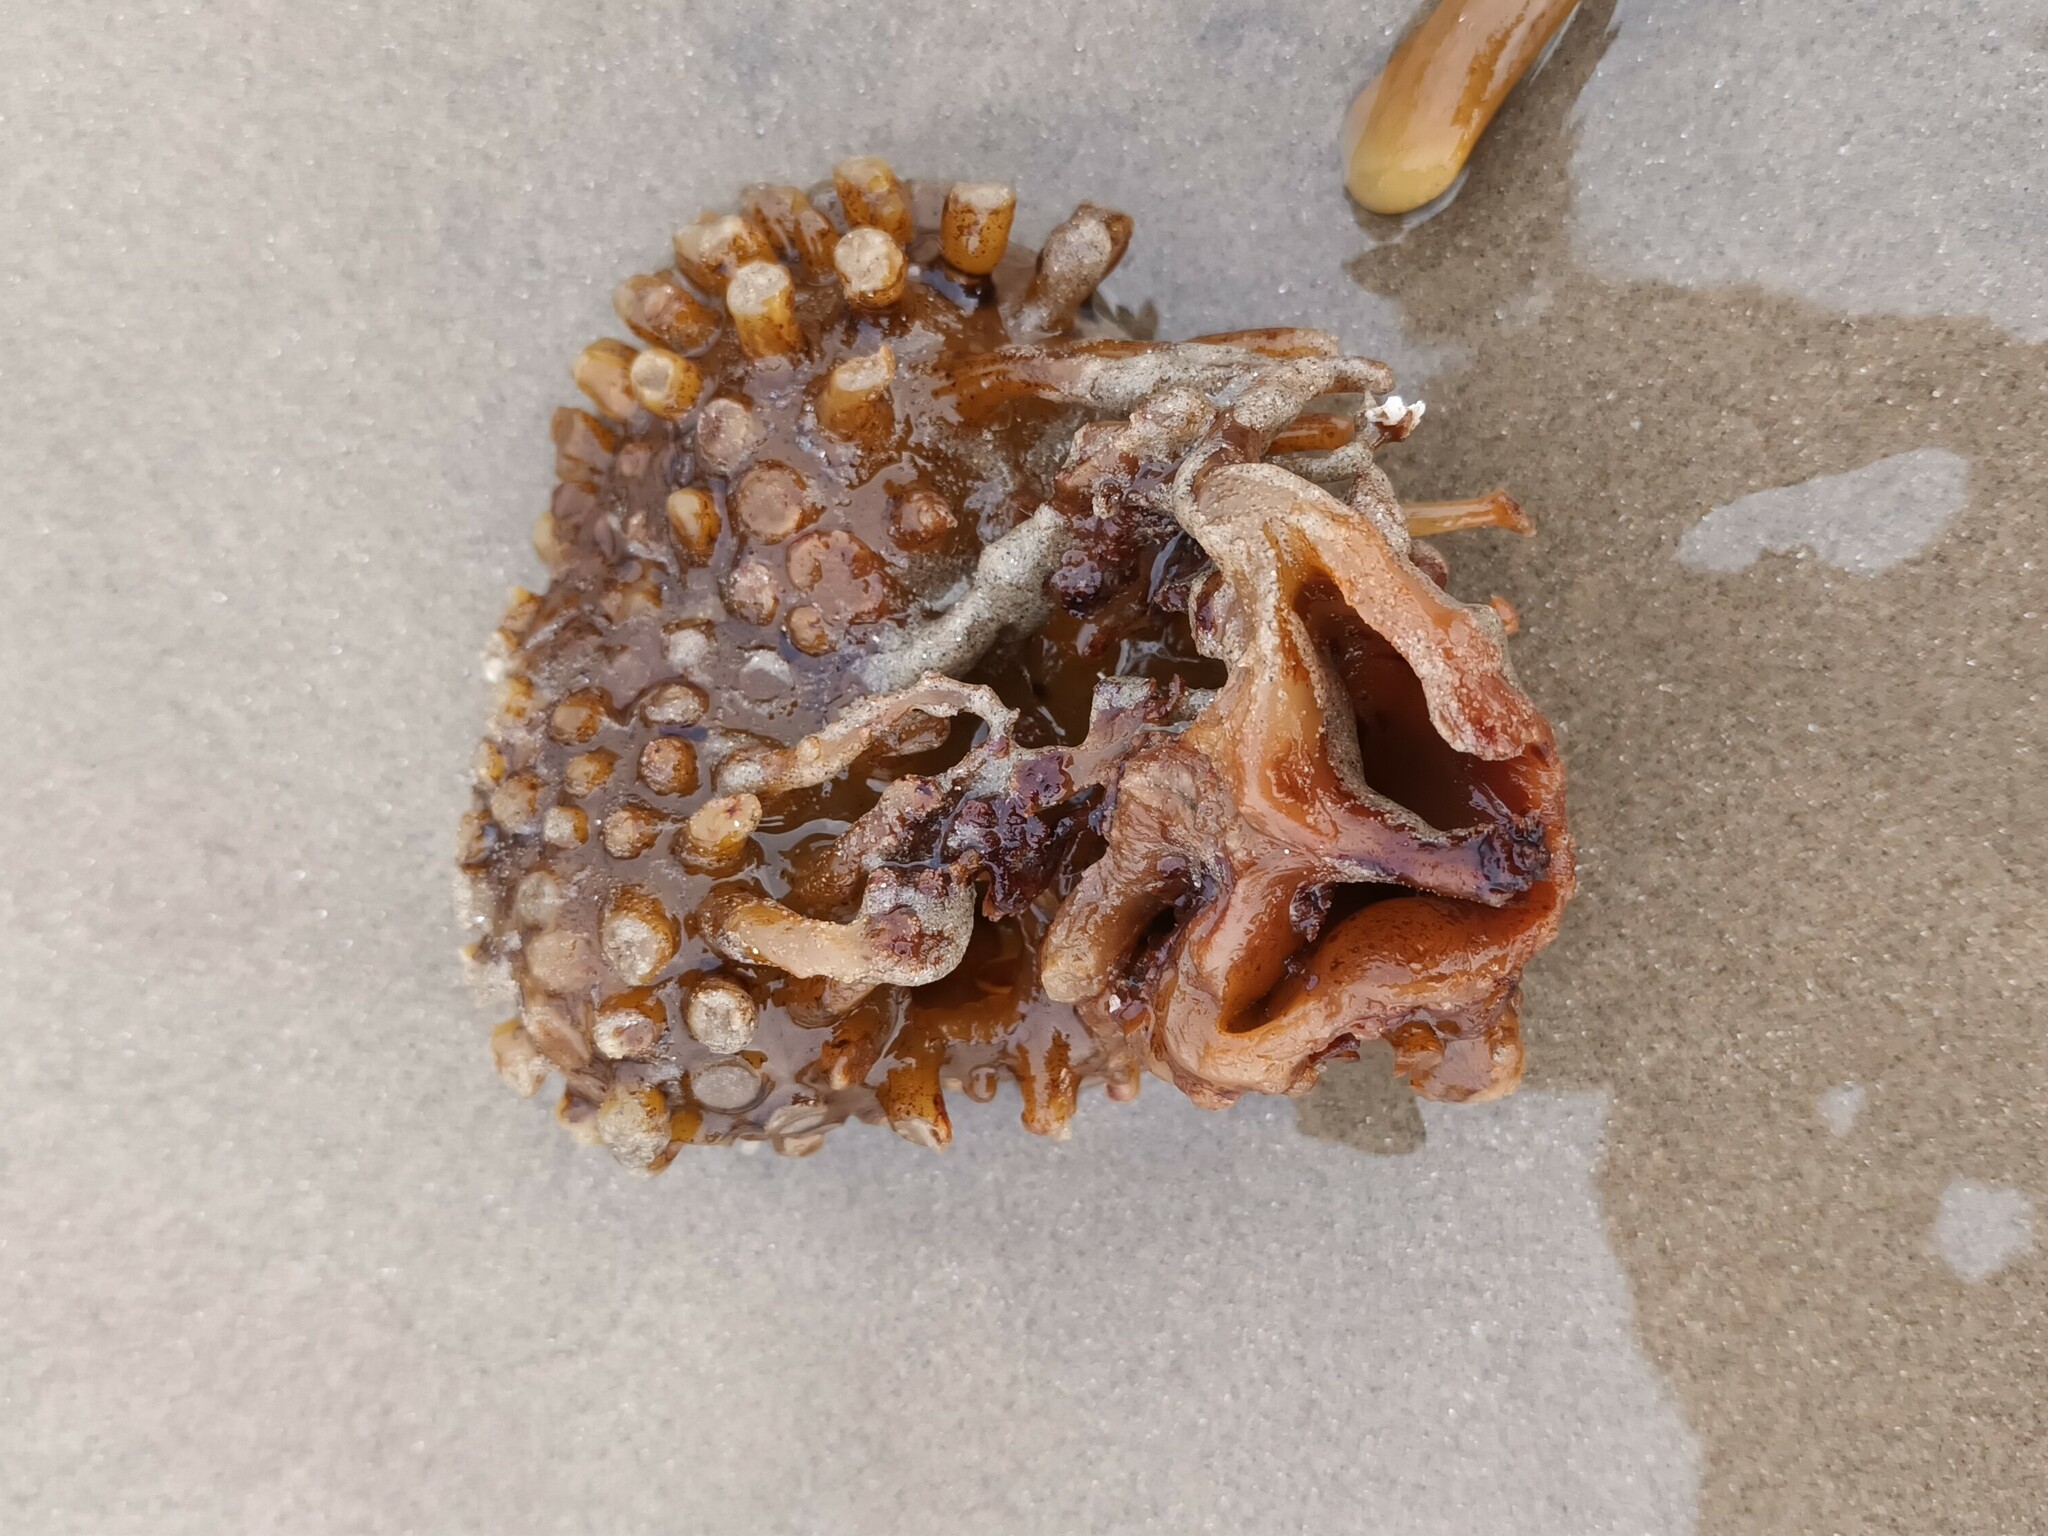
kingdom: Chromista
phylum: Ochrophyta
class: Phaeophyceae
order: Tilopteridales
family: Phyllariaceae
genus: Saccorhiza
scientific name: Saccorhiza polyschides
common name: Furbelows
